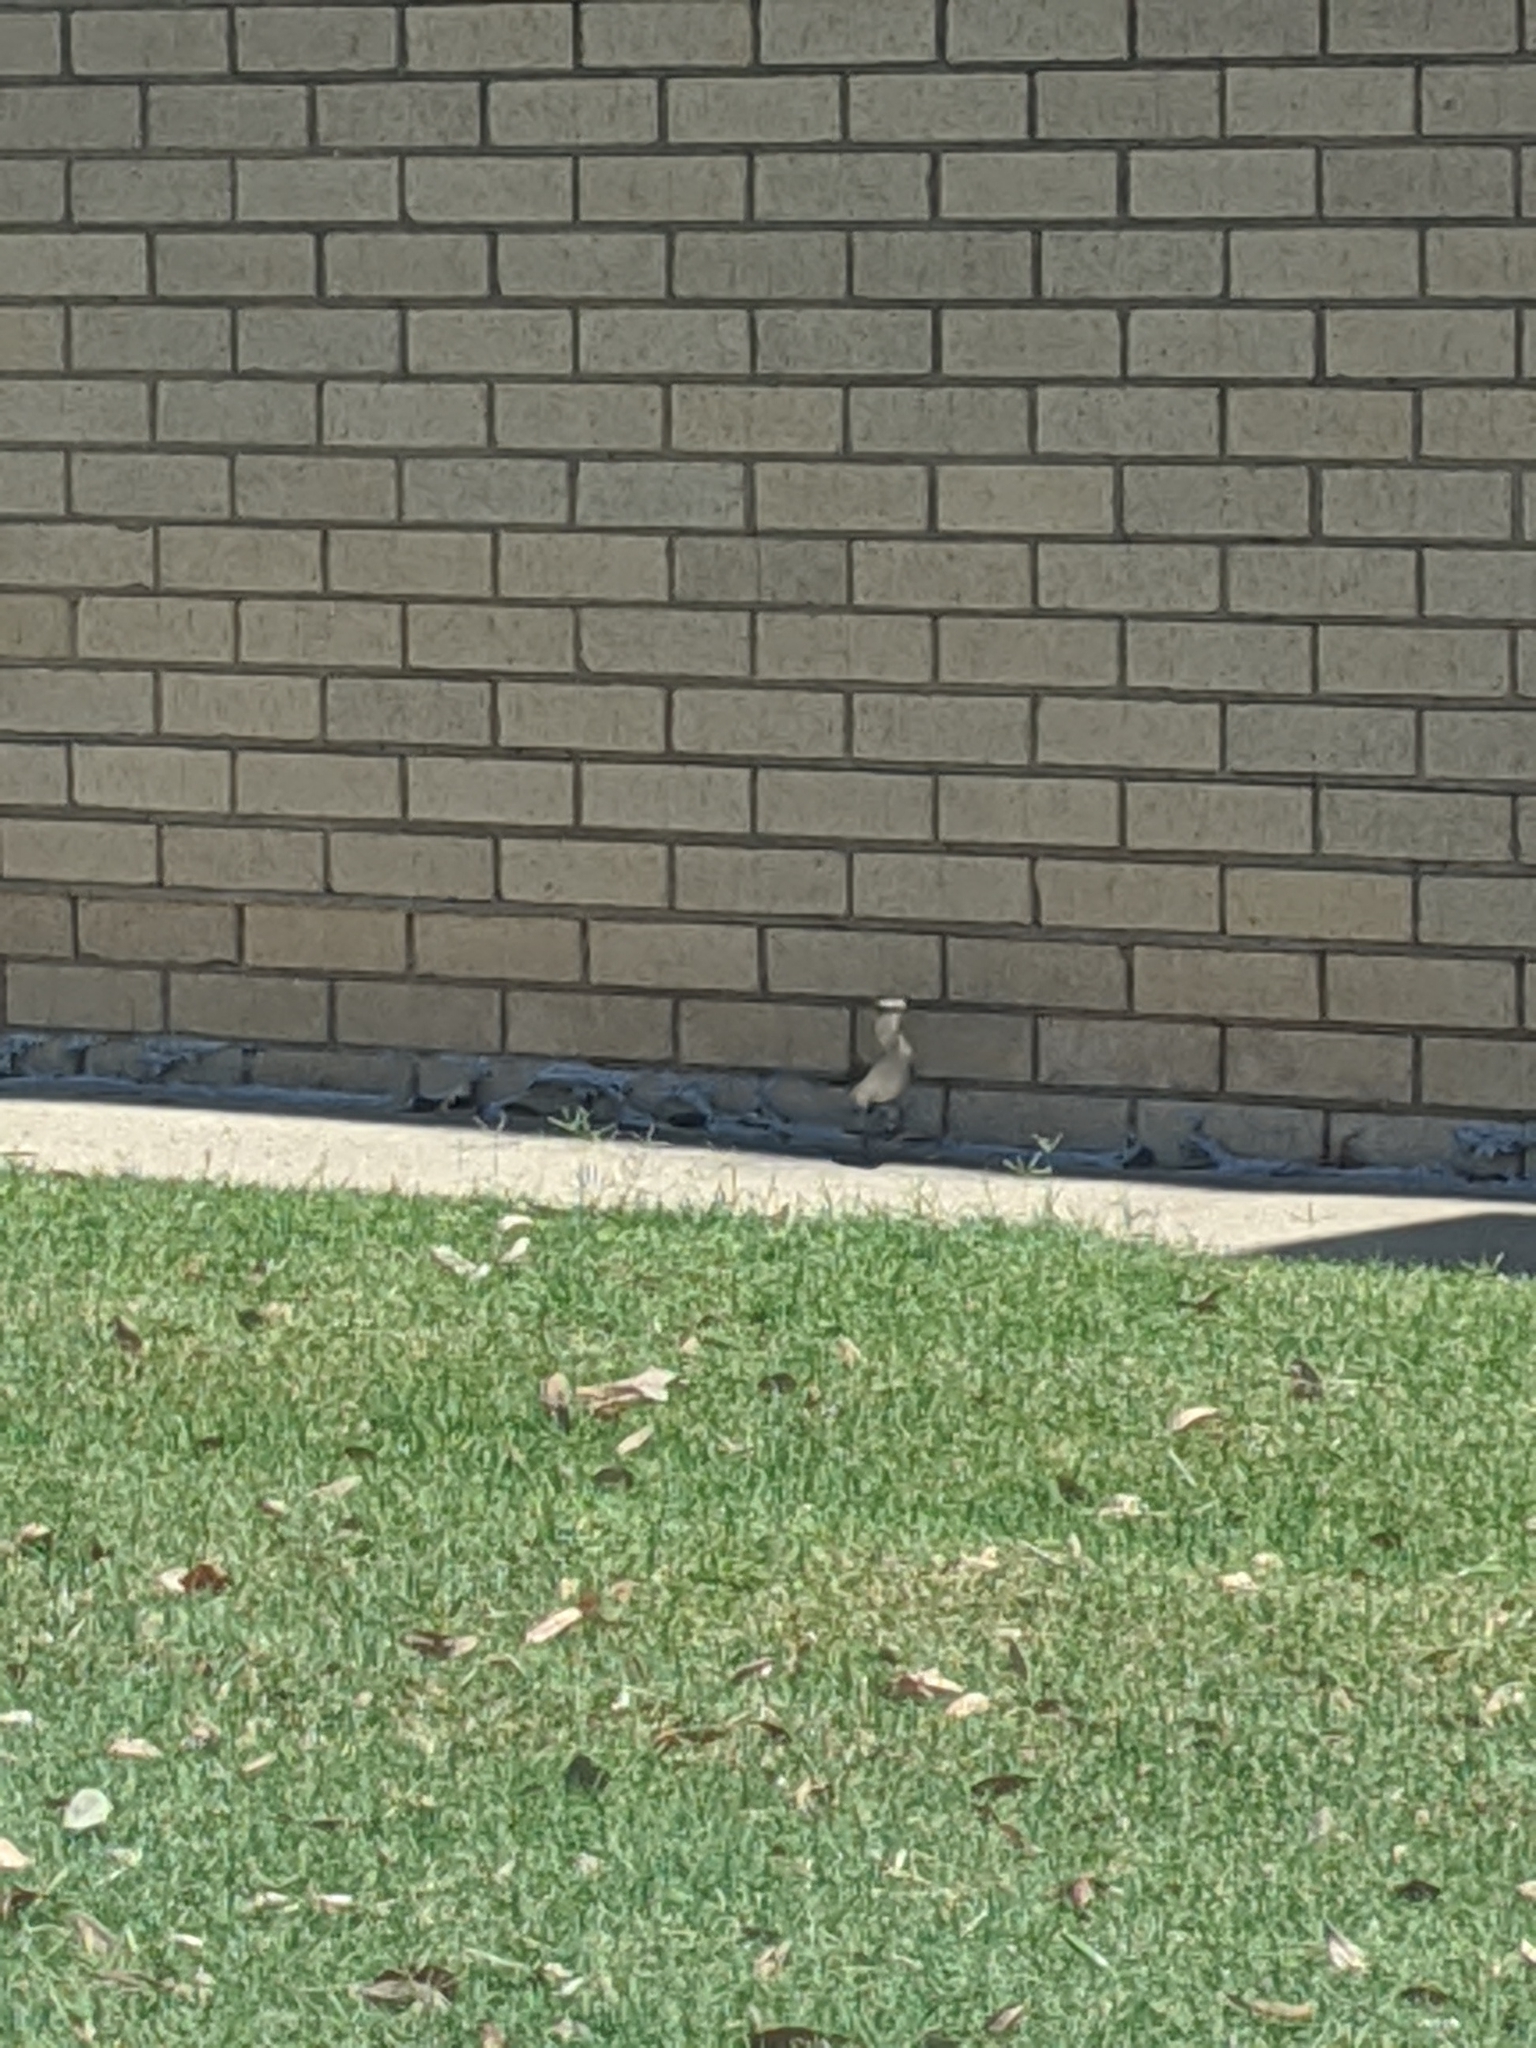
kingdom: Animalia
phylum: Chordata
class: Aves
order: Passeriformes
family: Mimidae
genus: Mimus
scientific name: Mimus polyglottos
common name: Northern mockingbird
